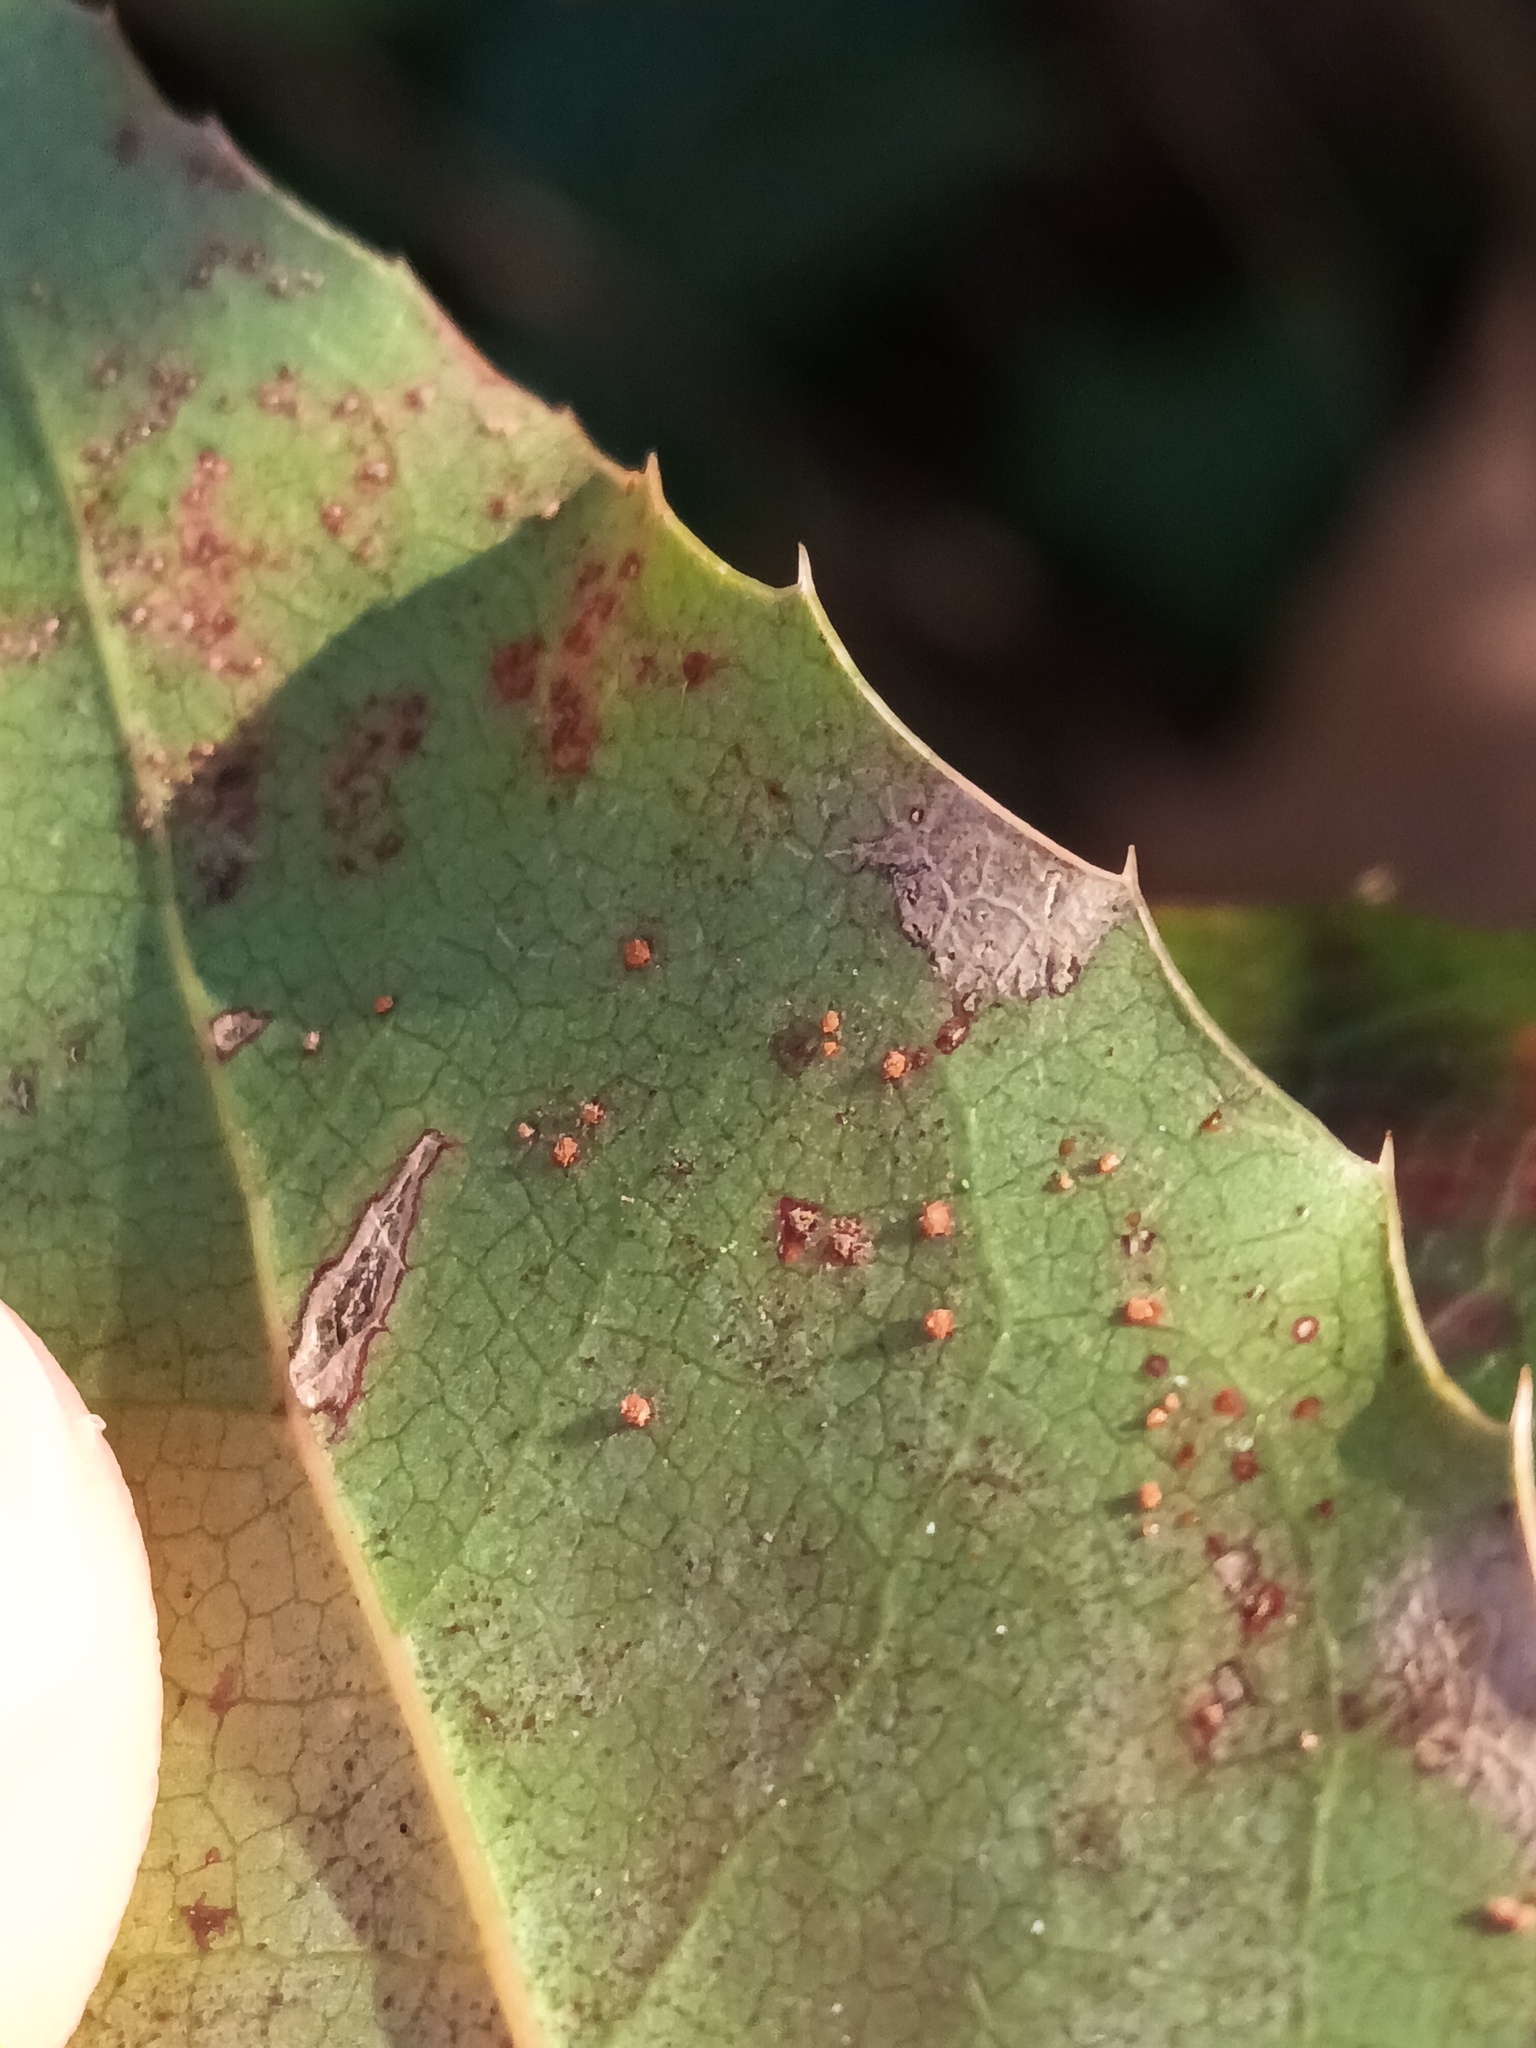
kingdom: Fungi
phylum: Basidiomycota
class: Pucciniomycetes
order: Pucciniales
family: Pucciniaceae
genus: Cumminsiella
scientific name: Cumminsiella mirabilissima
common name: Mahonia rust
